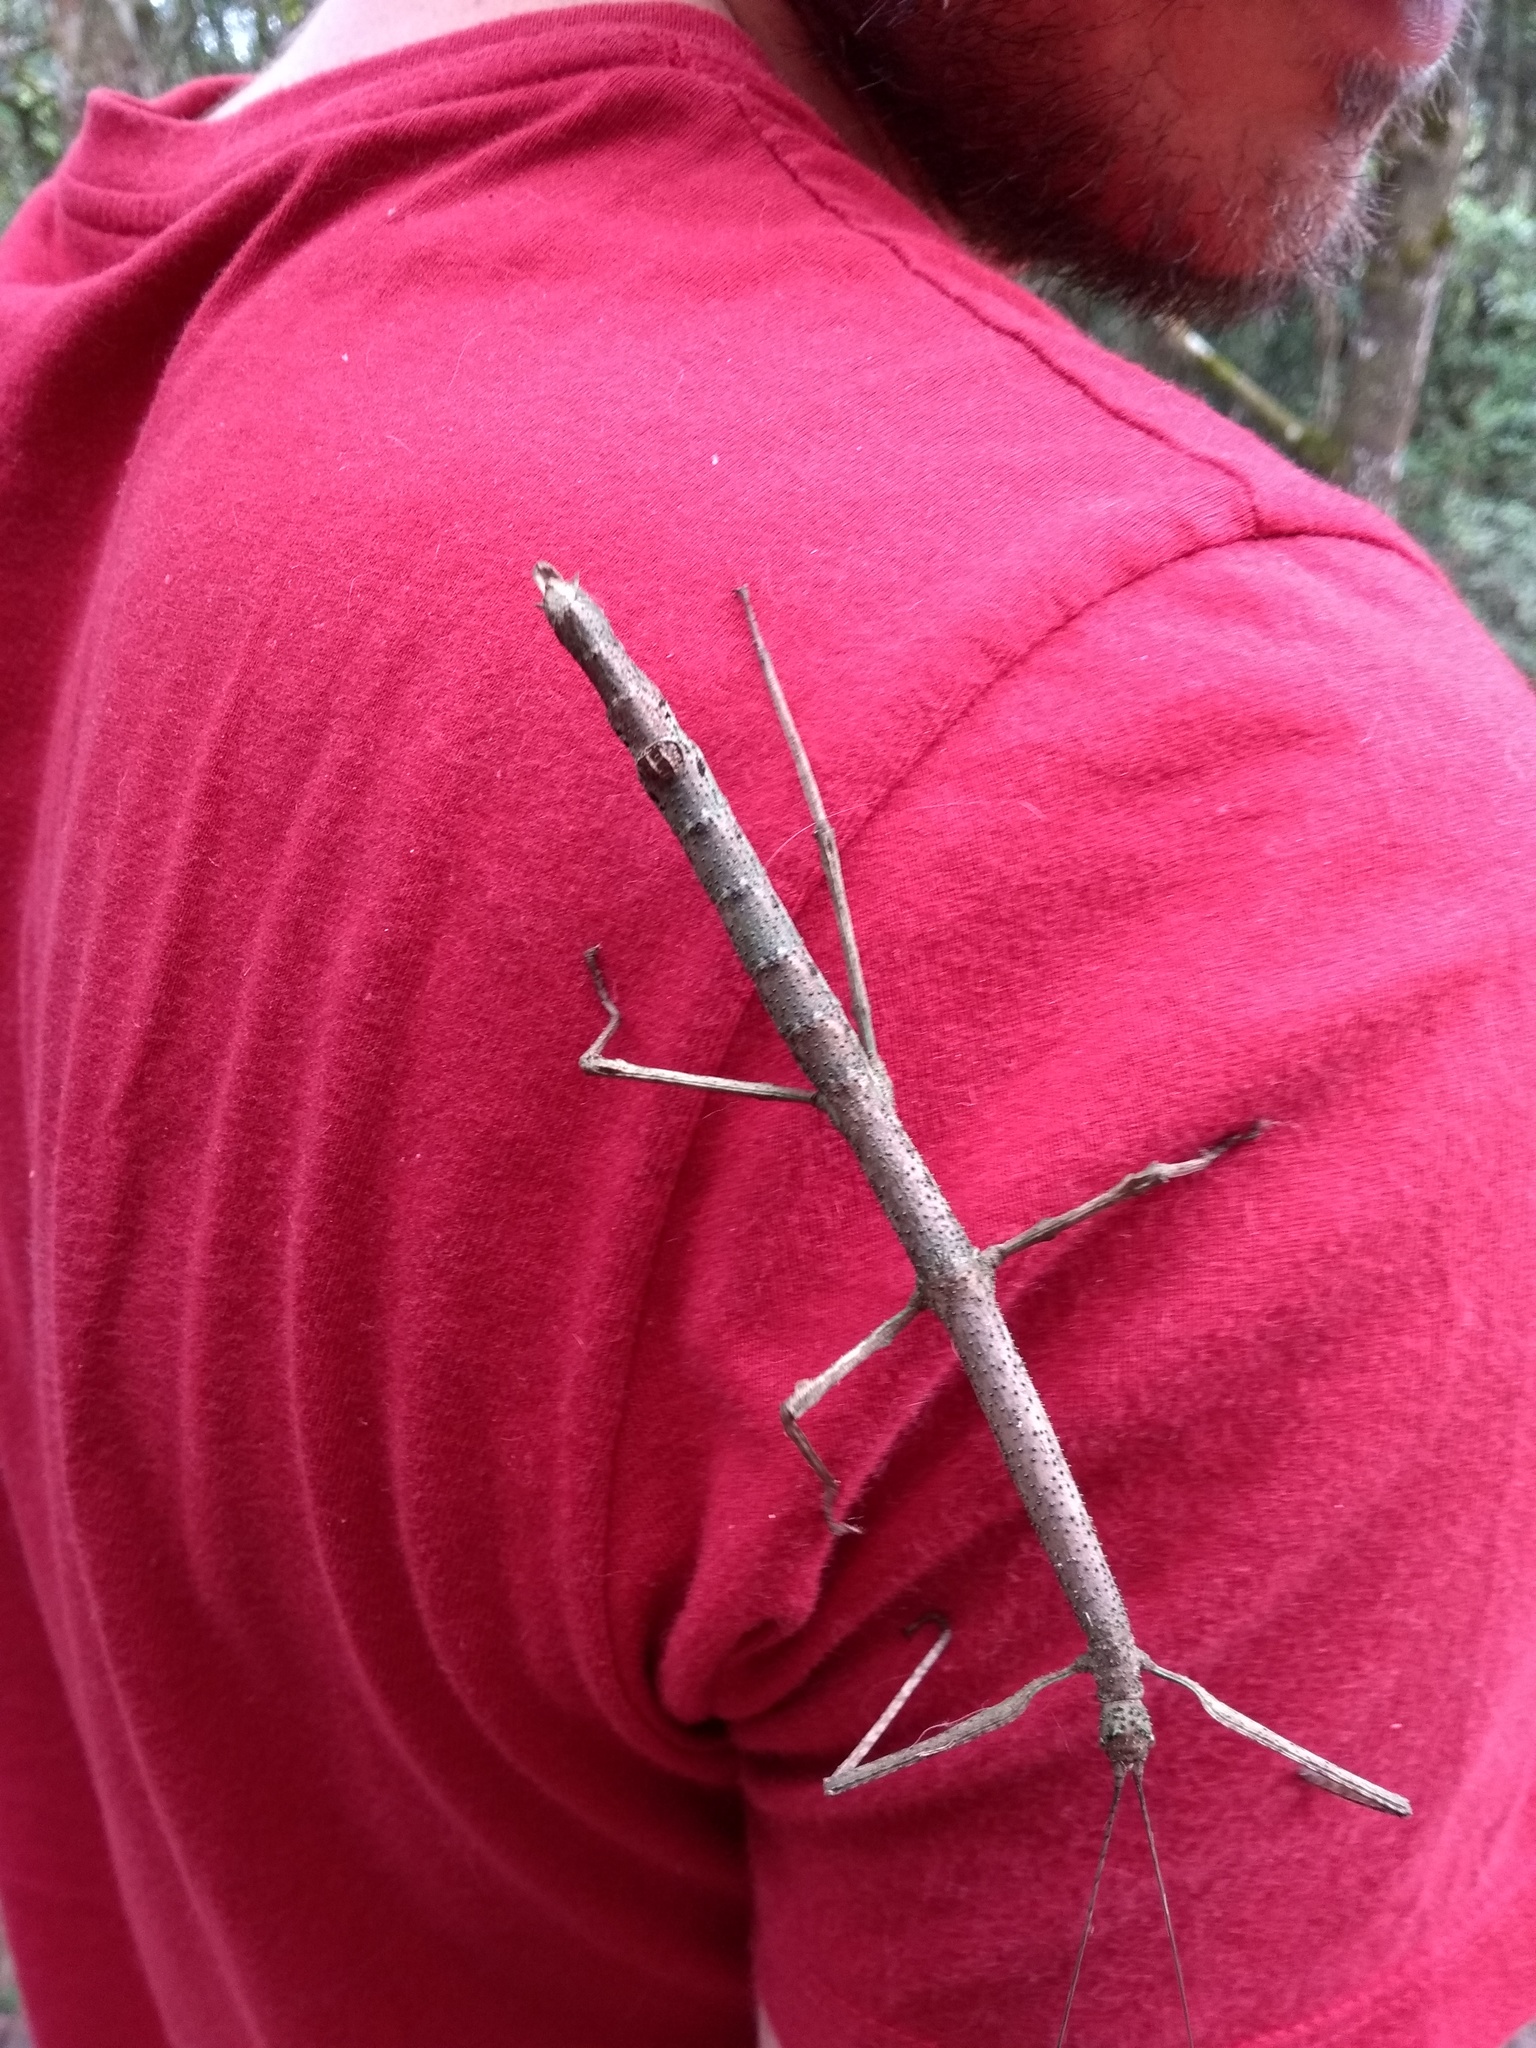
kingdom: Animalia
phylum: Arthropoda
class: Insecta
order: Phasmida
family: Heteronemiidae
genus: Canuleius
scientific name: Canuleius grandis
